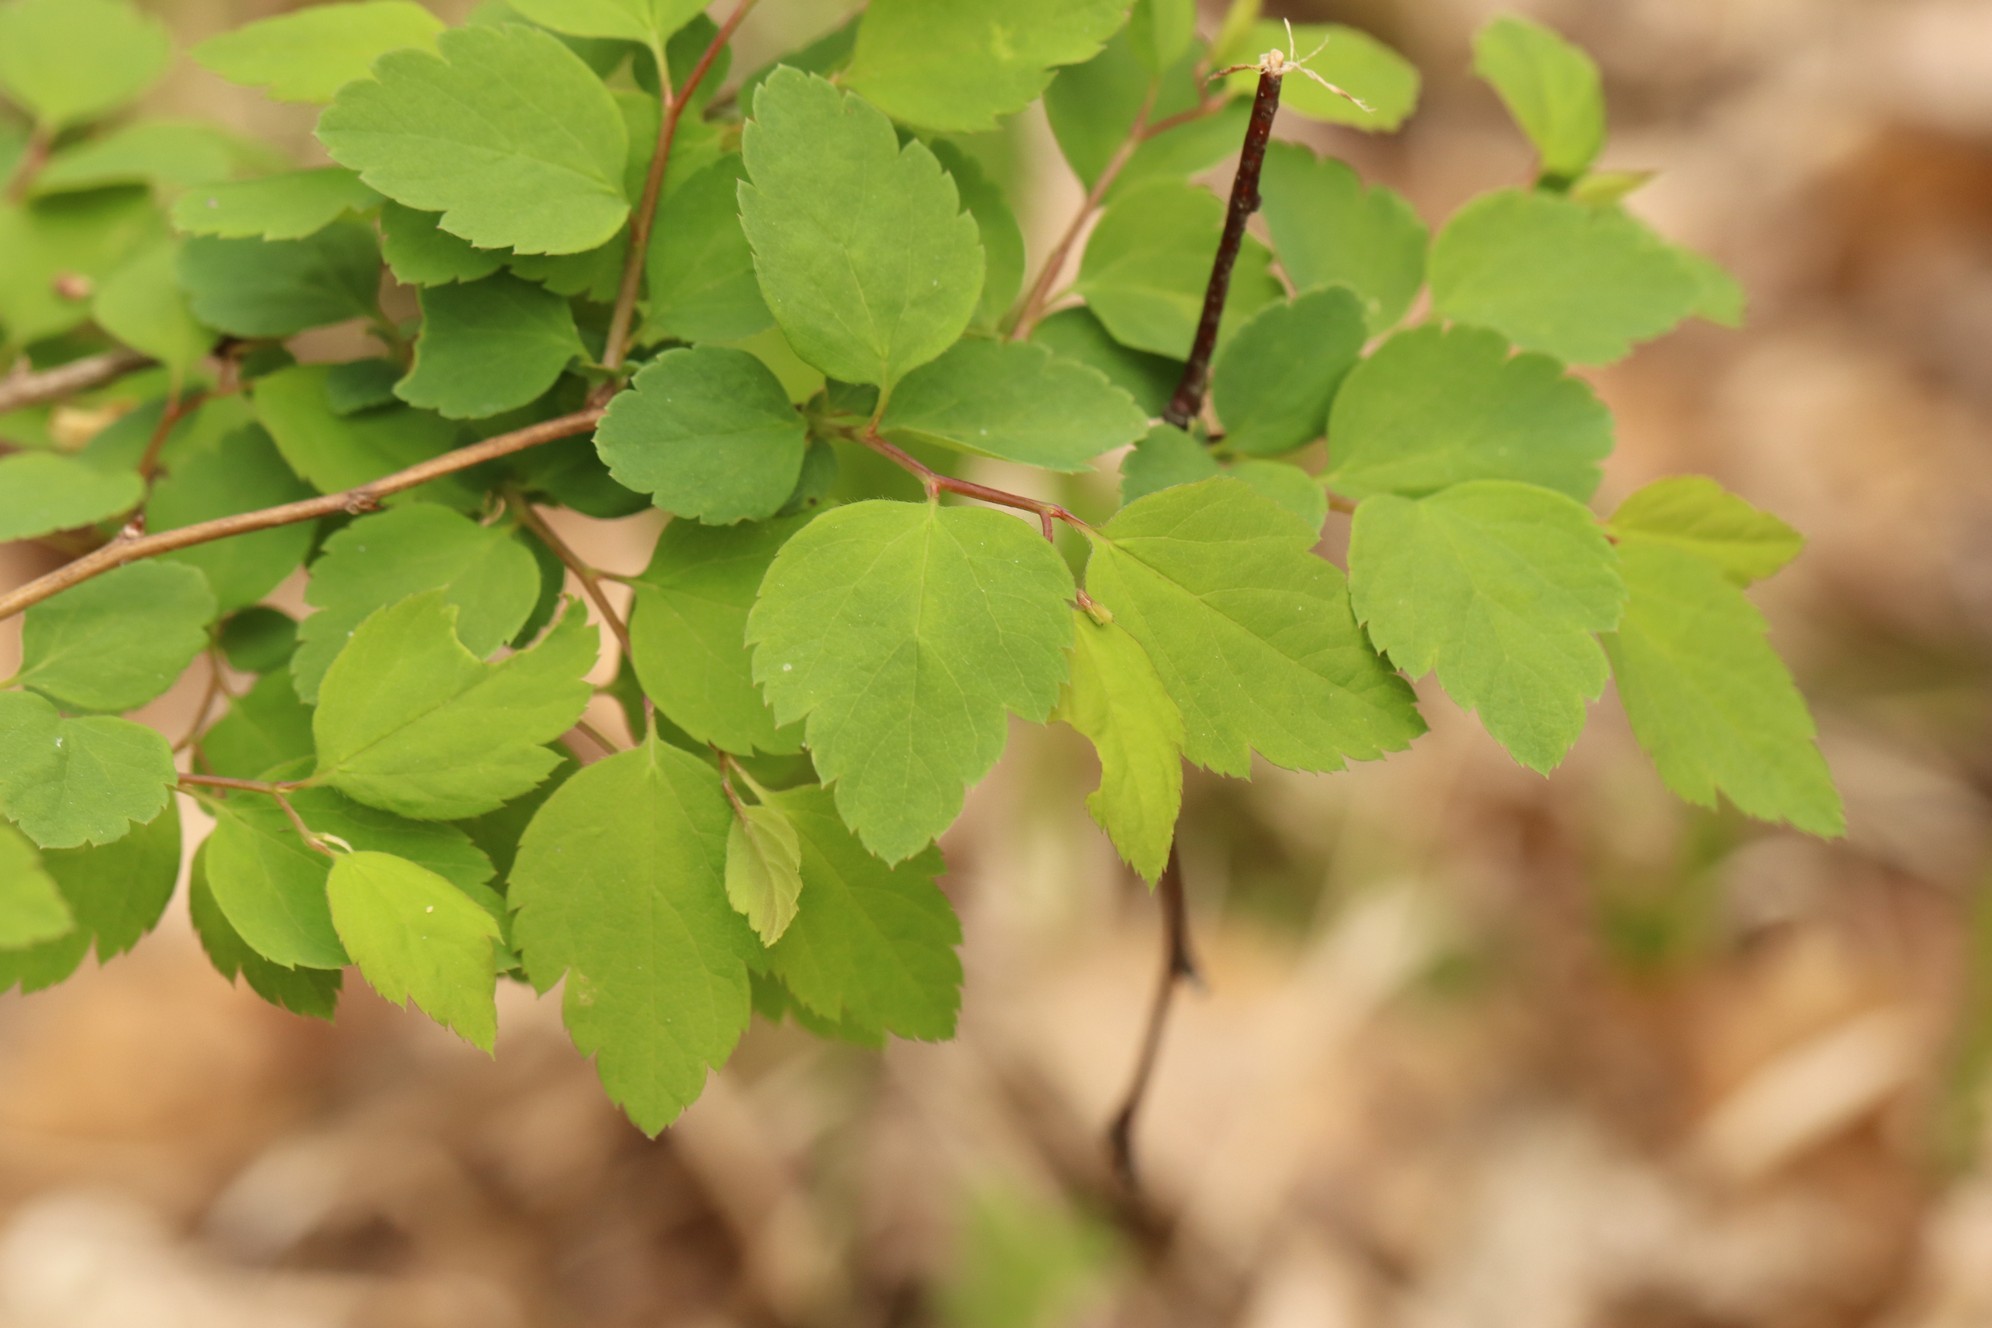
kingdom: Plantae
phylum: Tracheophyta
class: Magnoliopsida
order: Rosales
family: Rosaceae
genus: Spiraea
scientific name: Spiraea chamaedryfolia
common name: Elm-leaved spiraea
